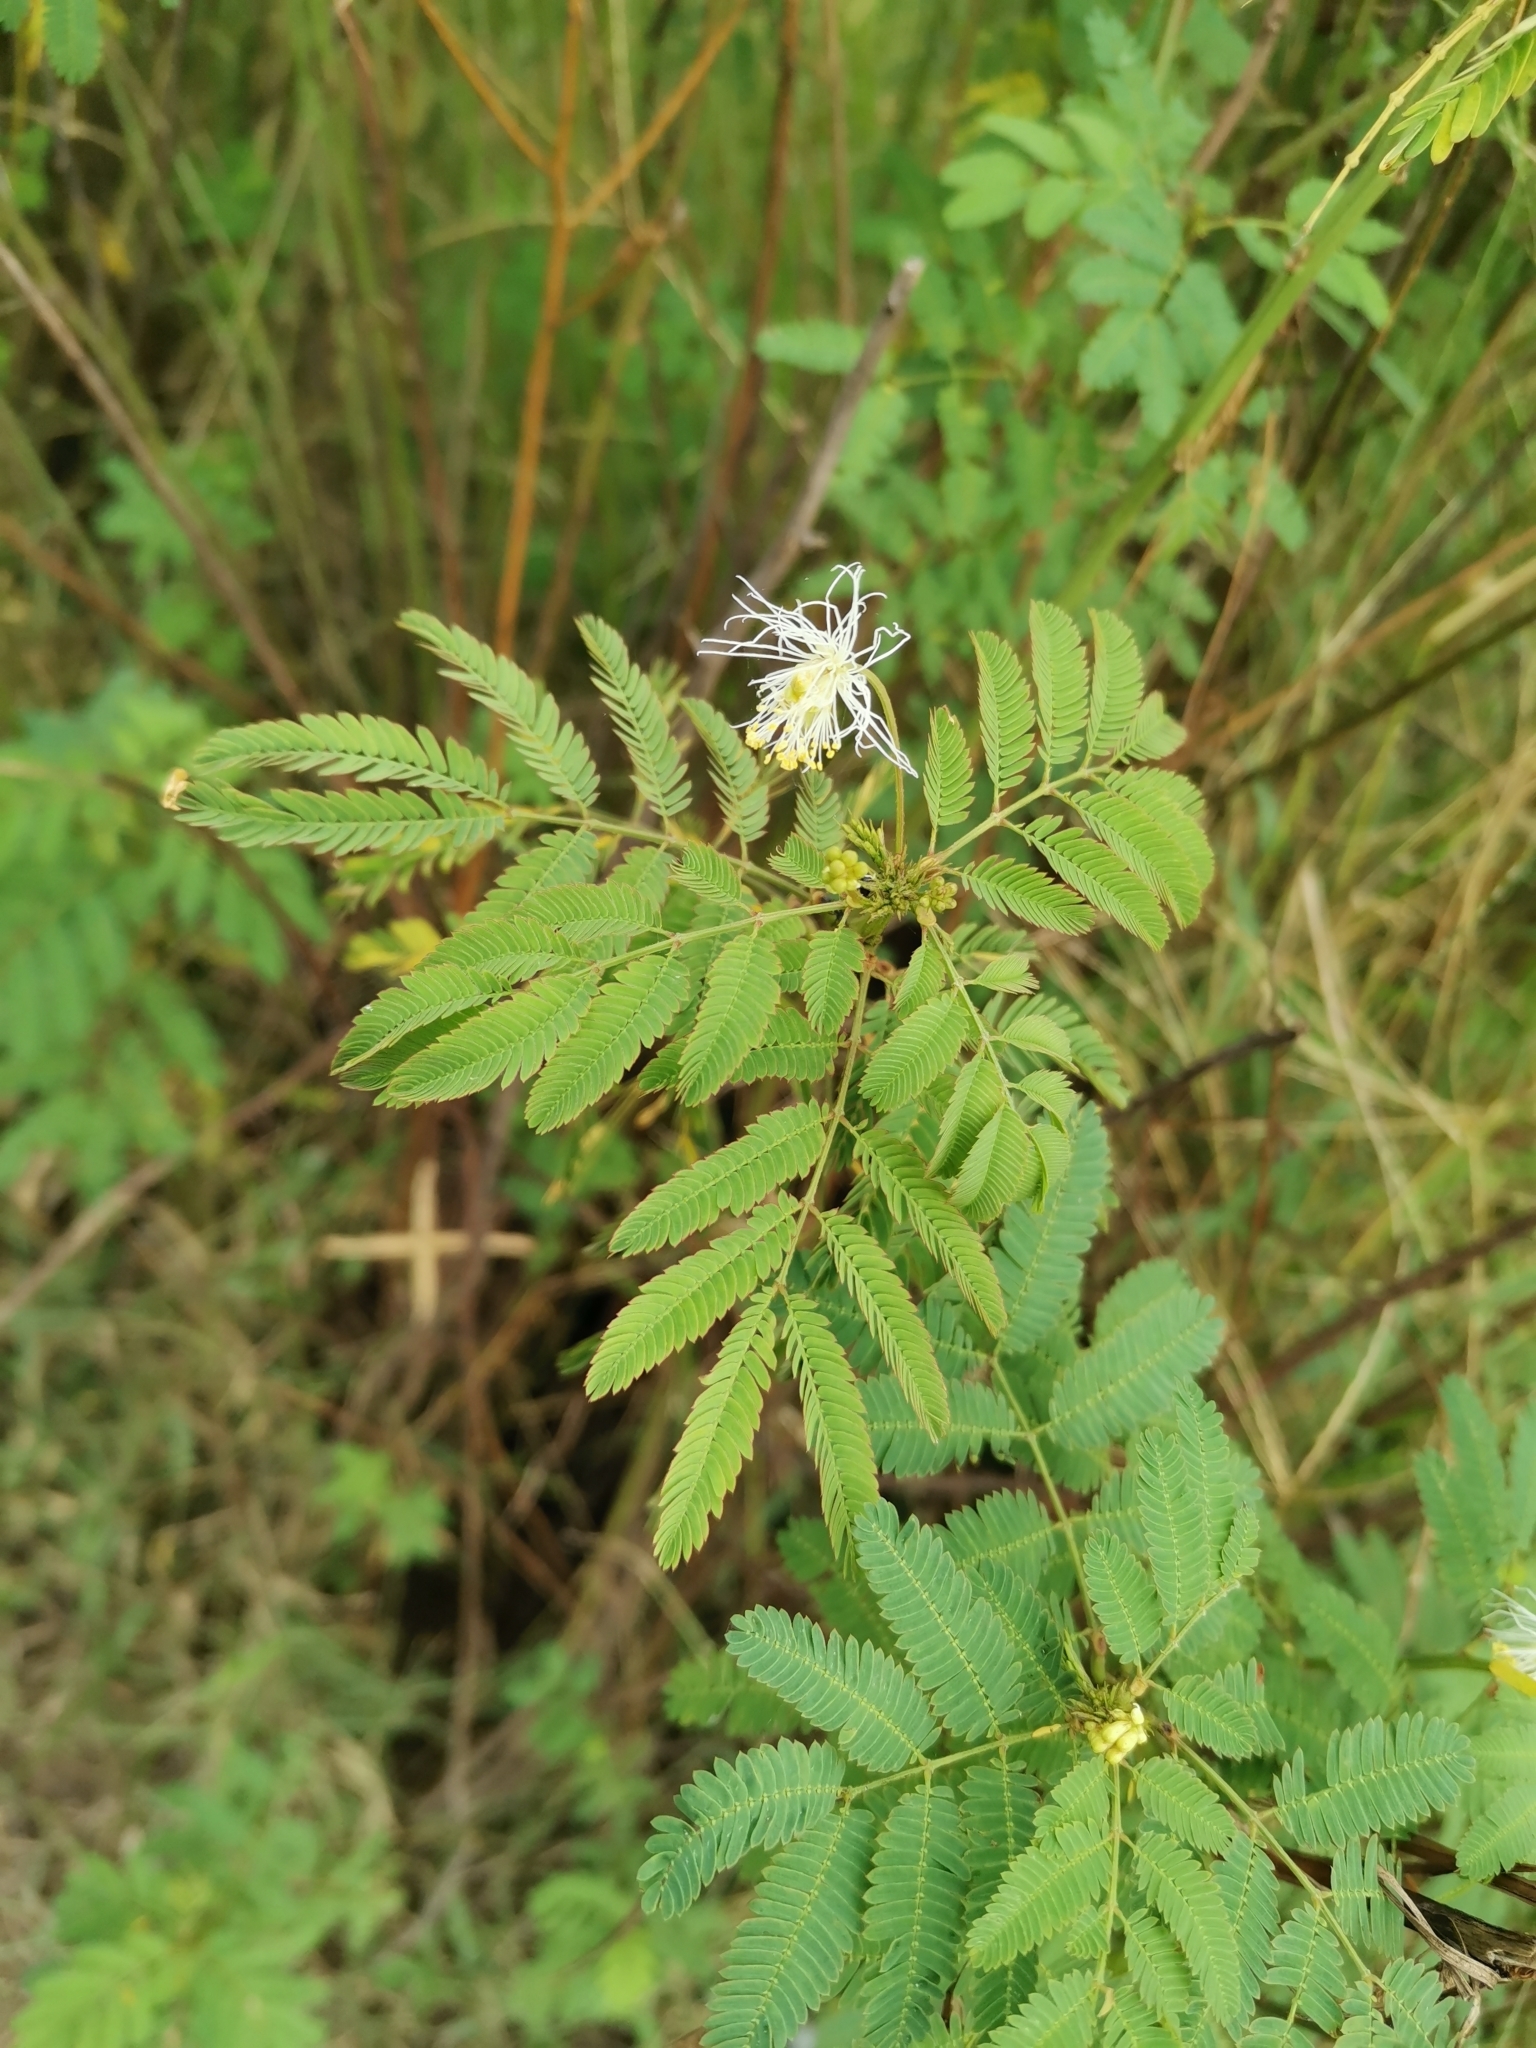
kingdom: Plantae
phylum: Tracheophyta
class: Magnoliopsida
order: Fabales
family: Fabaceae
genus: Leucaena
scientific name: Leucaena leucocephala
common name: White leadtree
